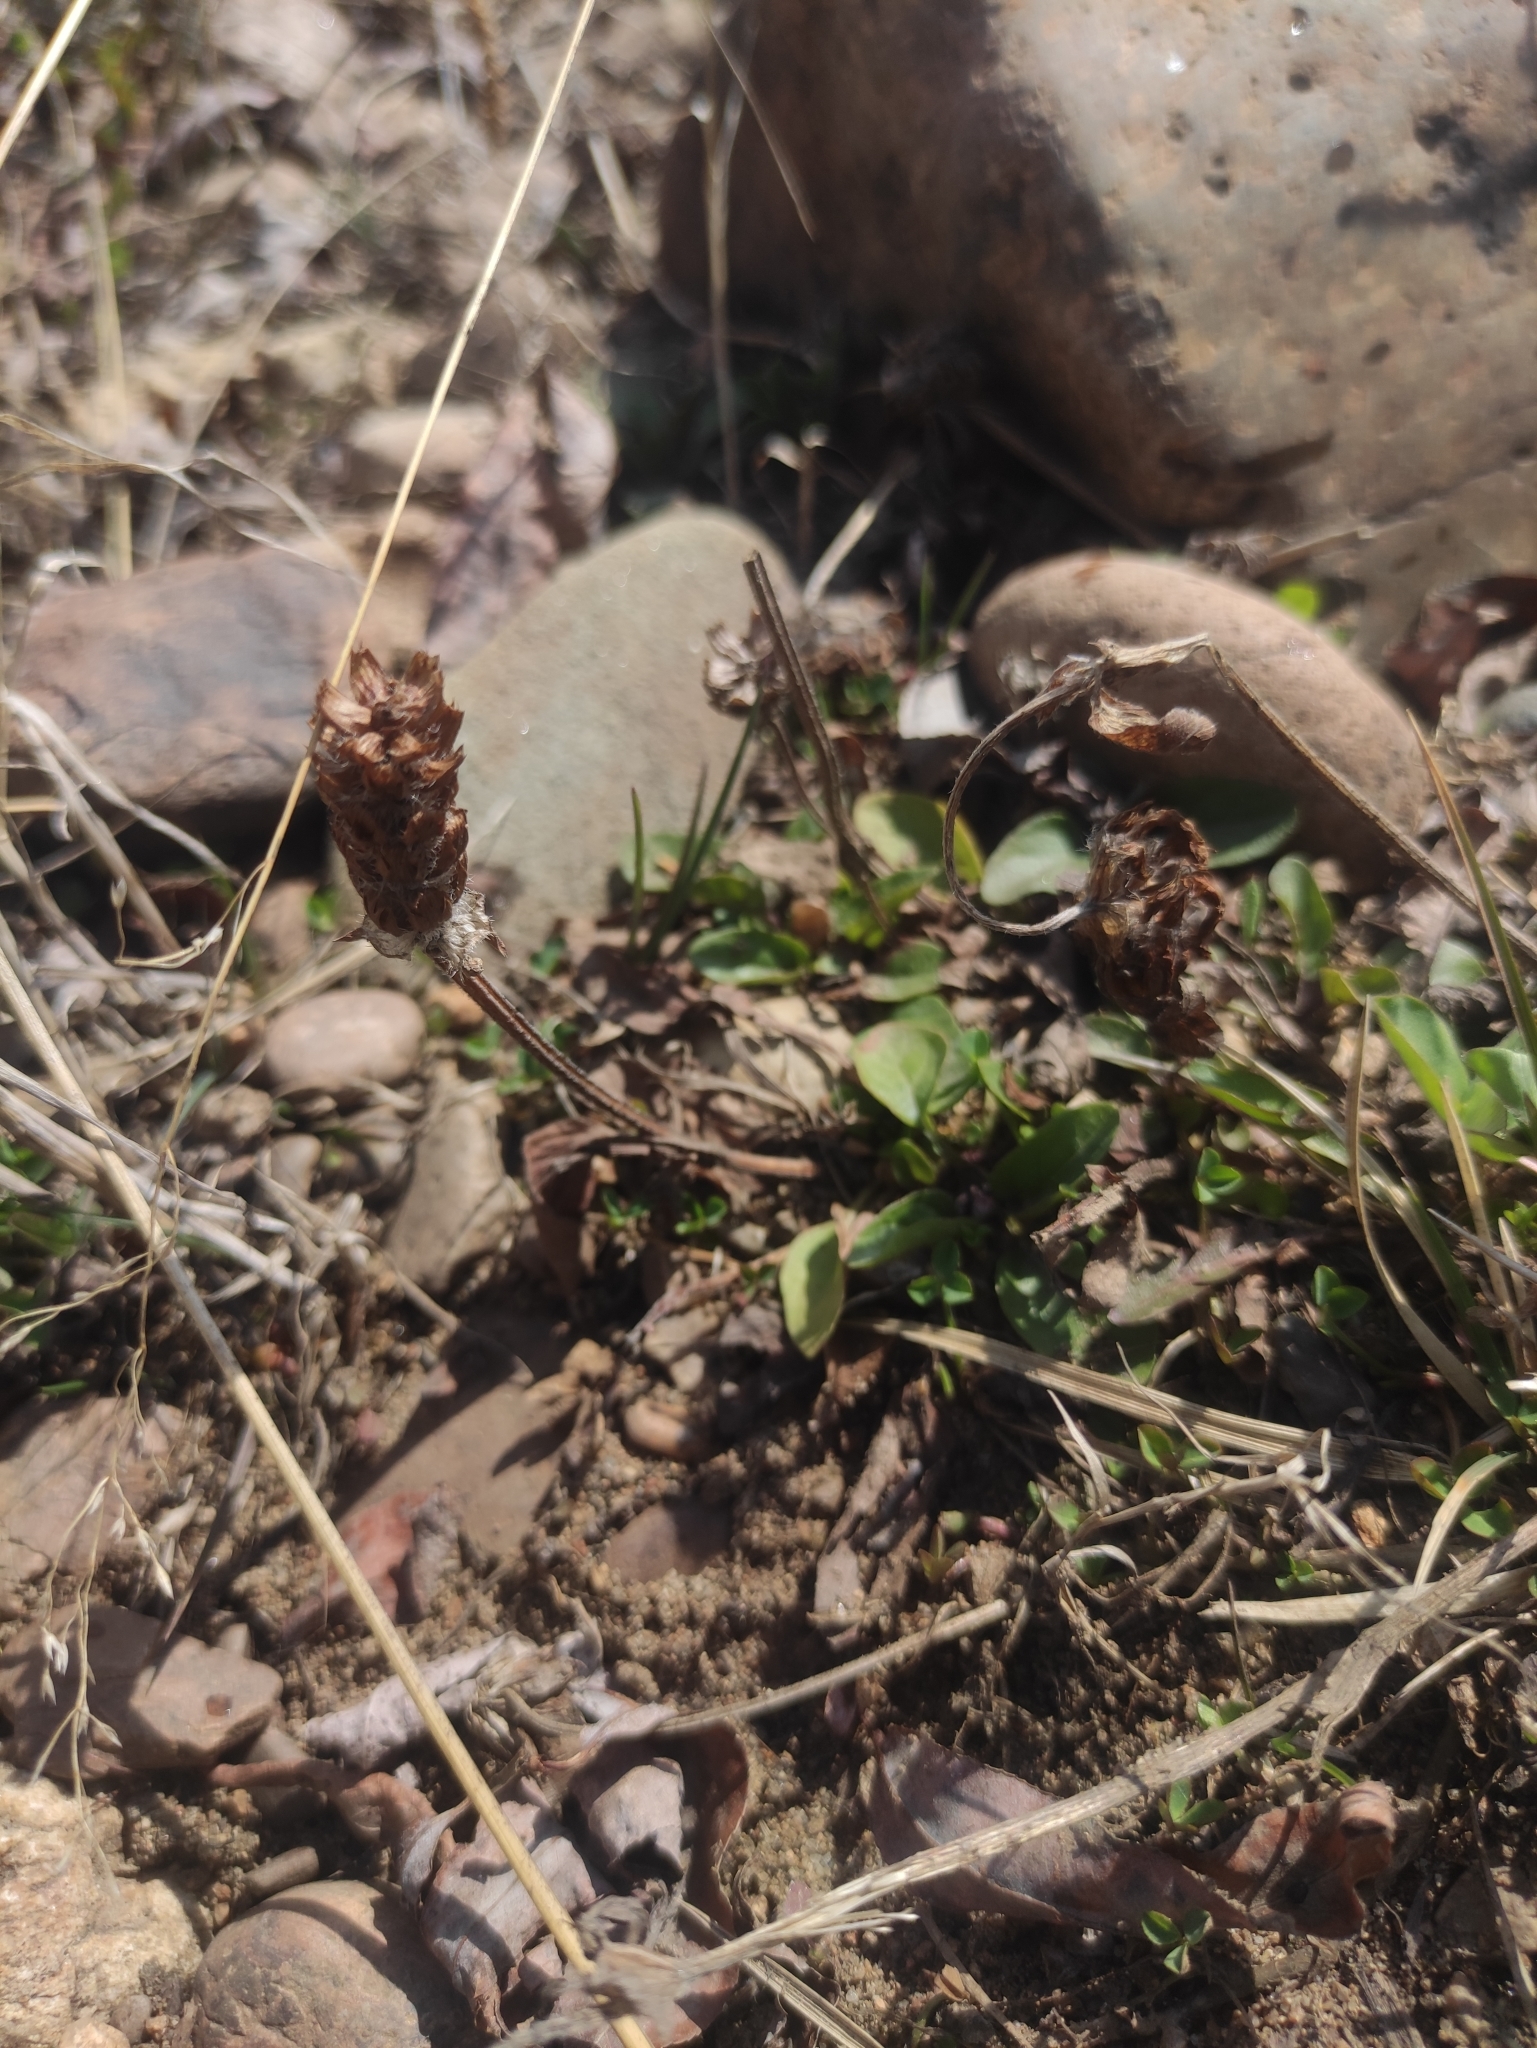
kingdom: Plantae
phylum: Tracheophyta
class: Magnoliopsida
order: Lamiales
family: Lamiaceae
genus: Prunella
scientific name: Prunella vulgaris
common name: Heal-all
